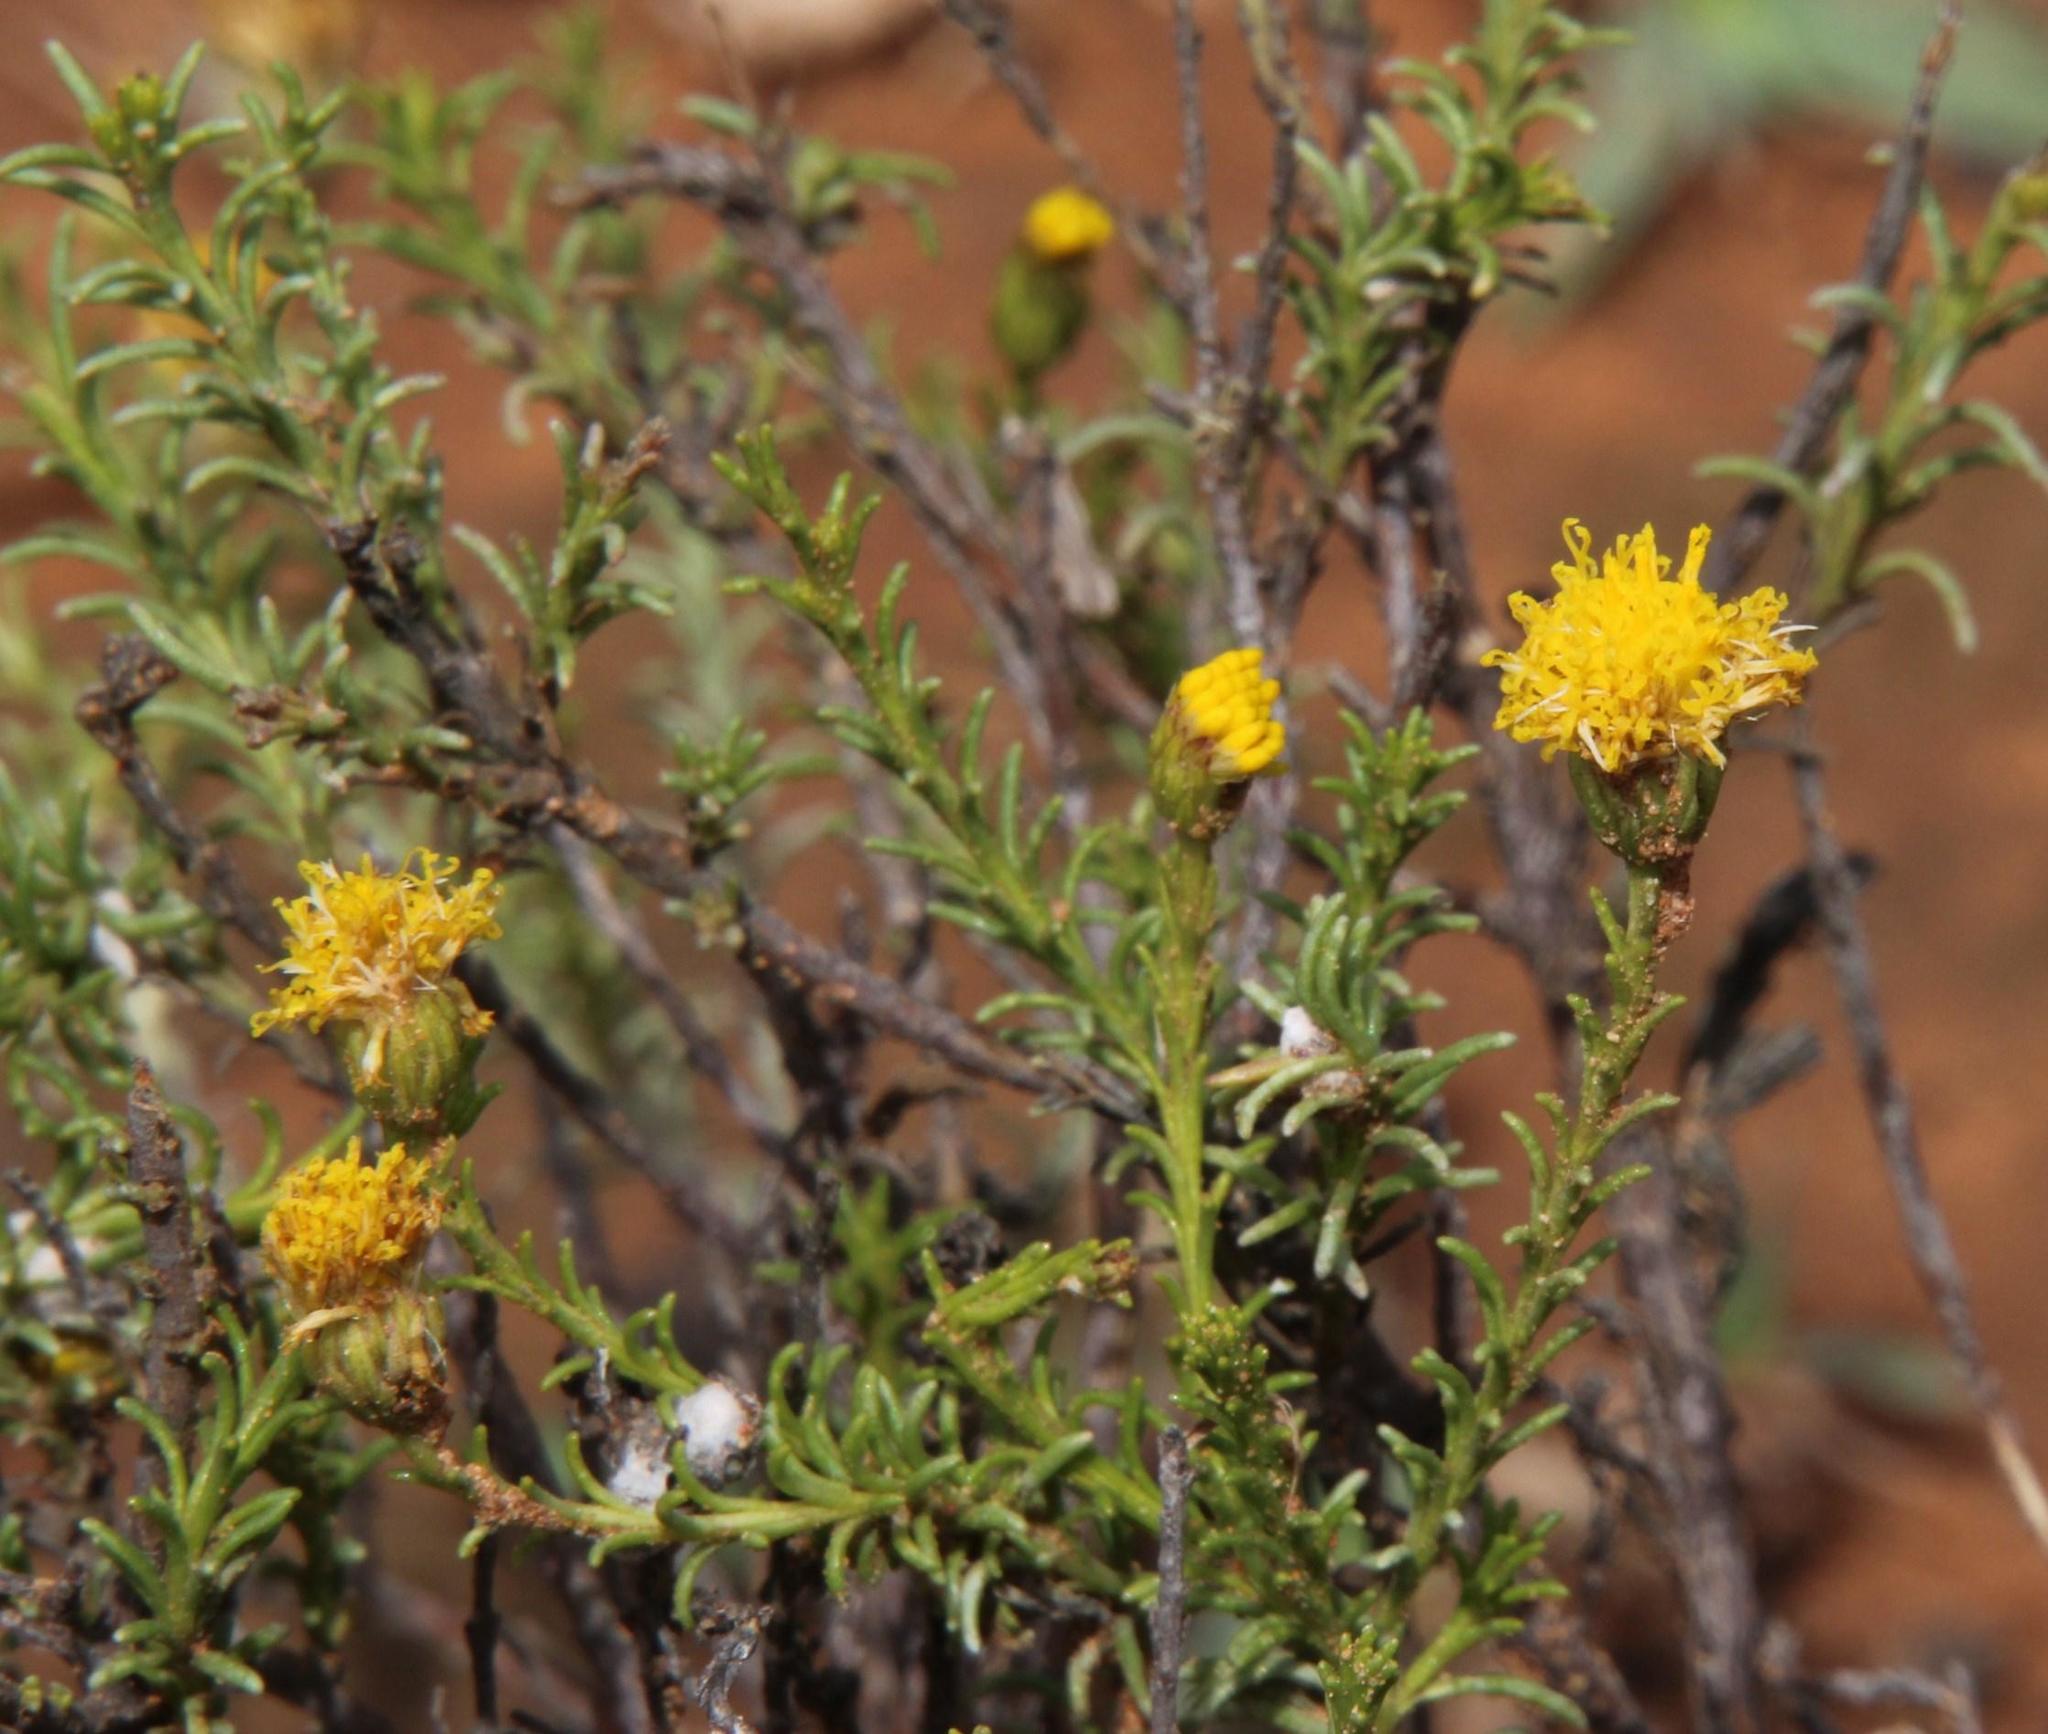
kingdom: Plantae
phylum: Tracheophyta
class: Magnoliopsida
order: Asterales
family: Asteraceae
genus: Chrysocoma
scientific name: Chrysocoma ciliata
